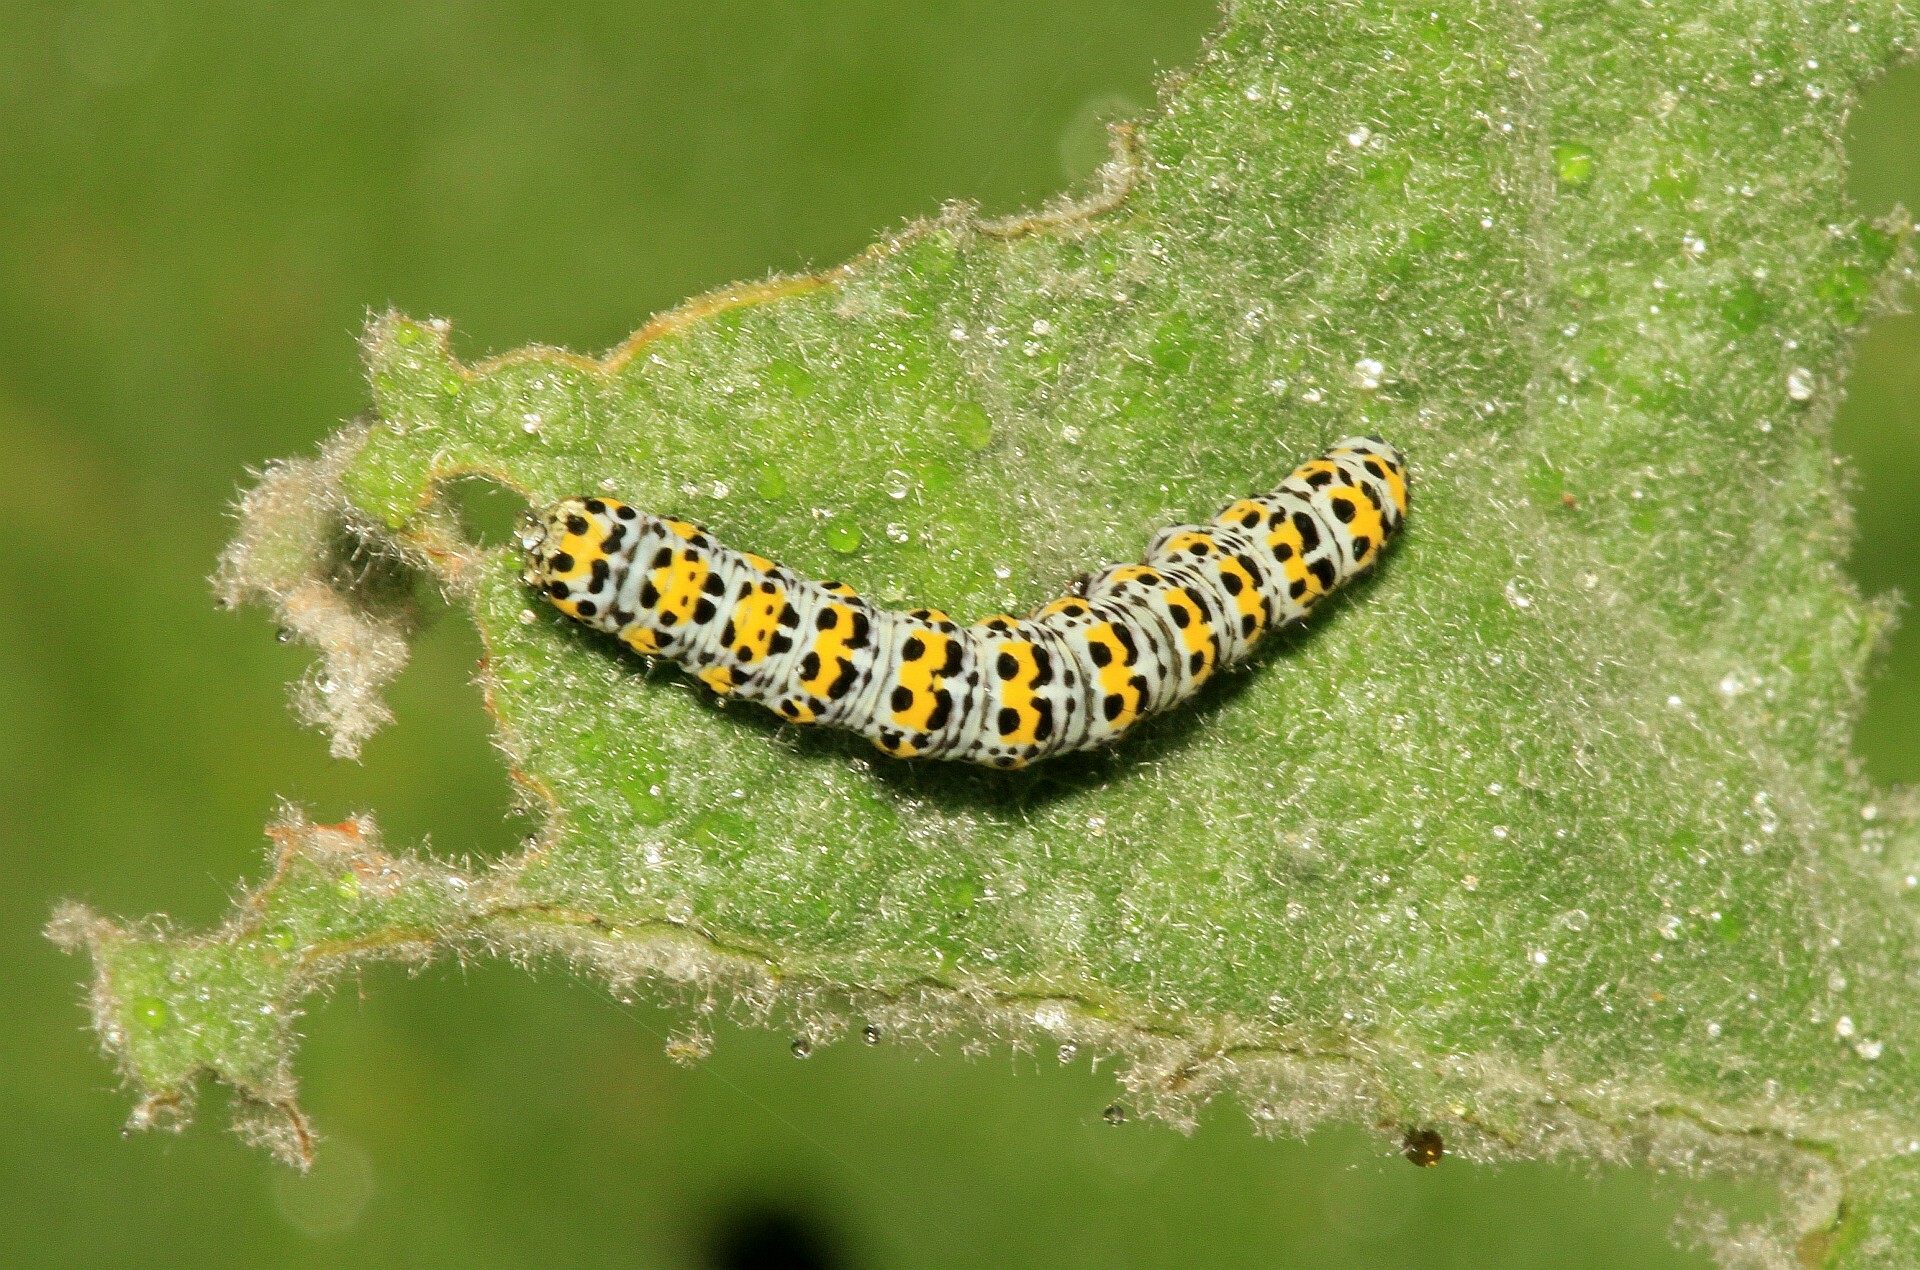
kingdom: Animalia
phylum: Arthropoda
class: Insecta
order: Lepidoptera
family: Noctuidae
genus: Cucullia
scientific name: Cucullia verbasci
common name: Mullein
